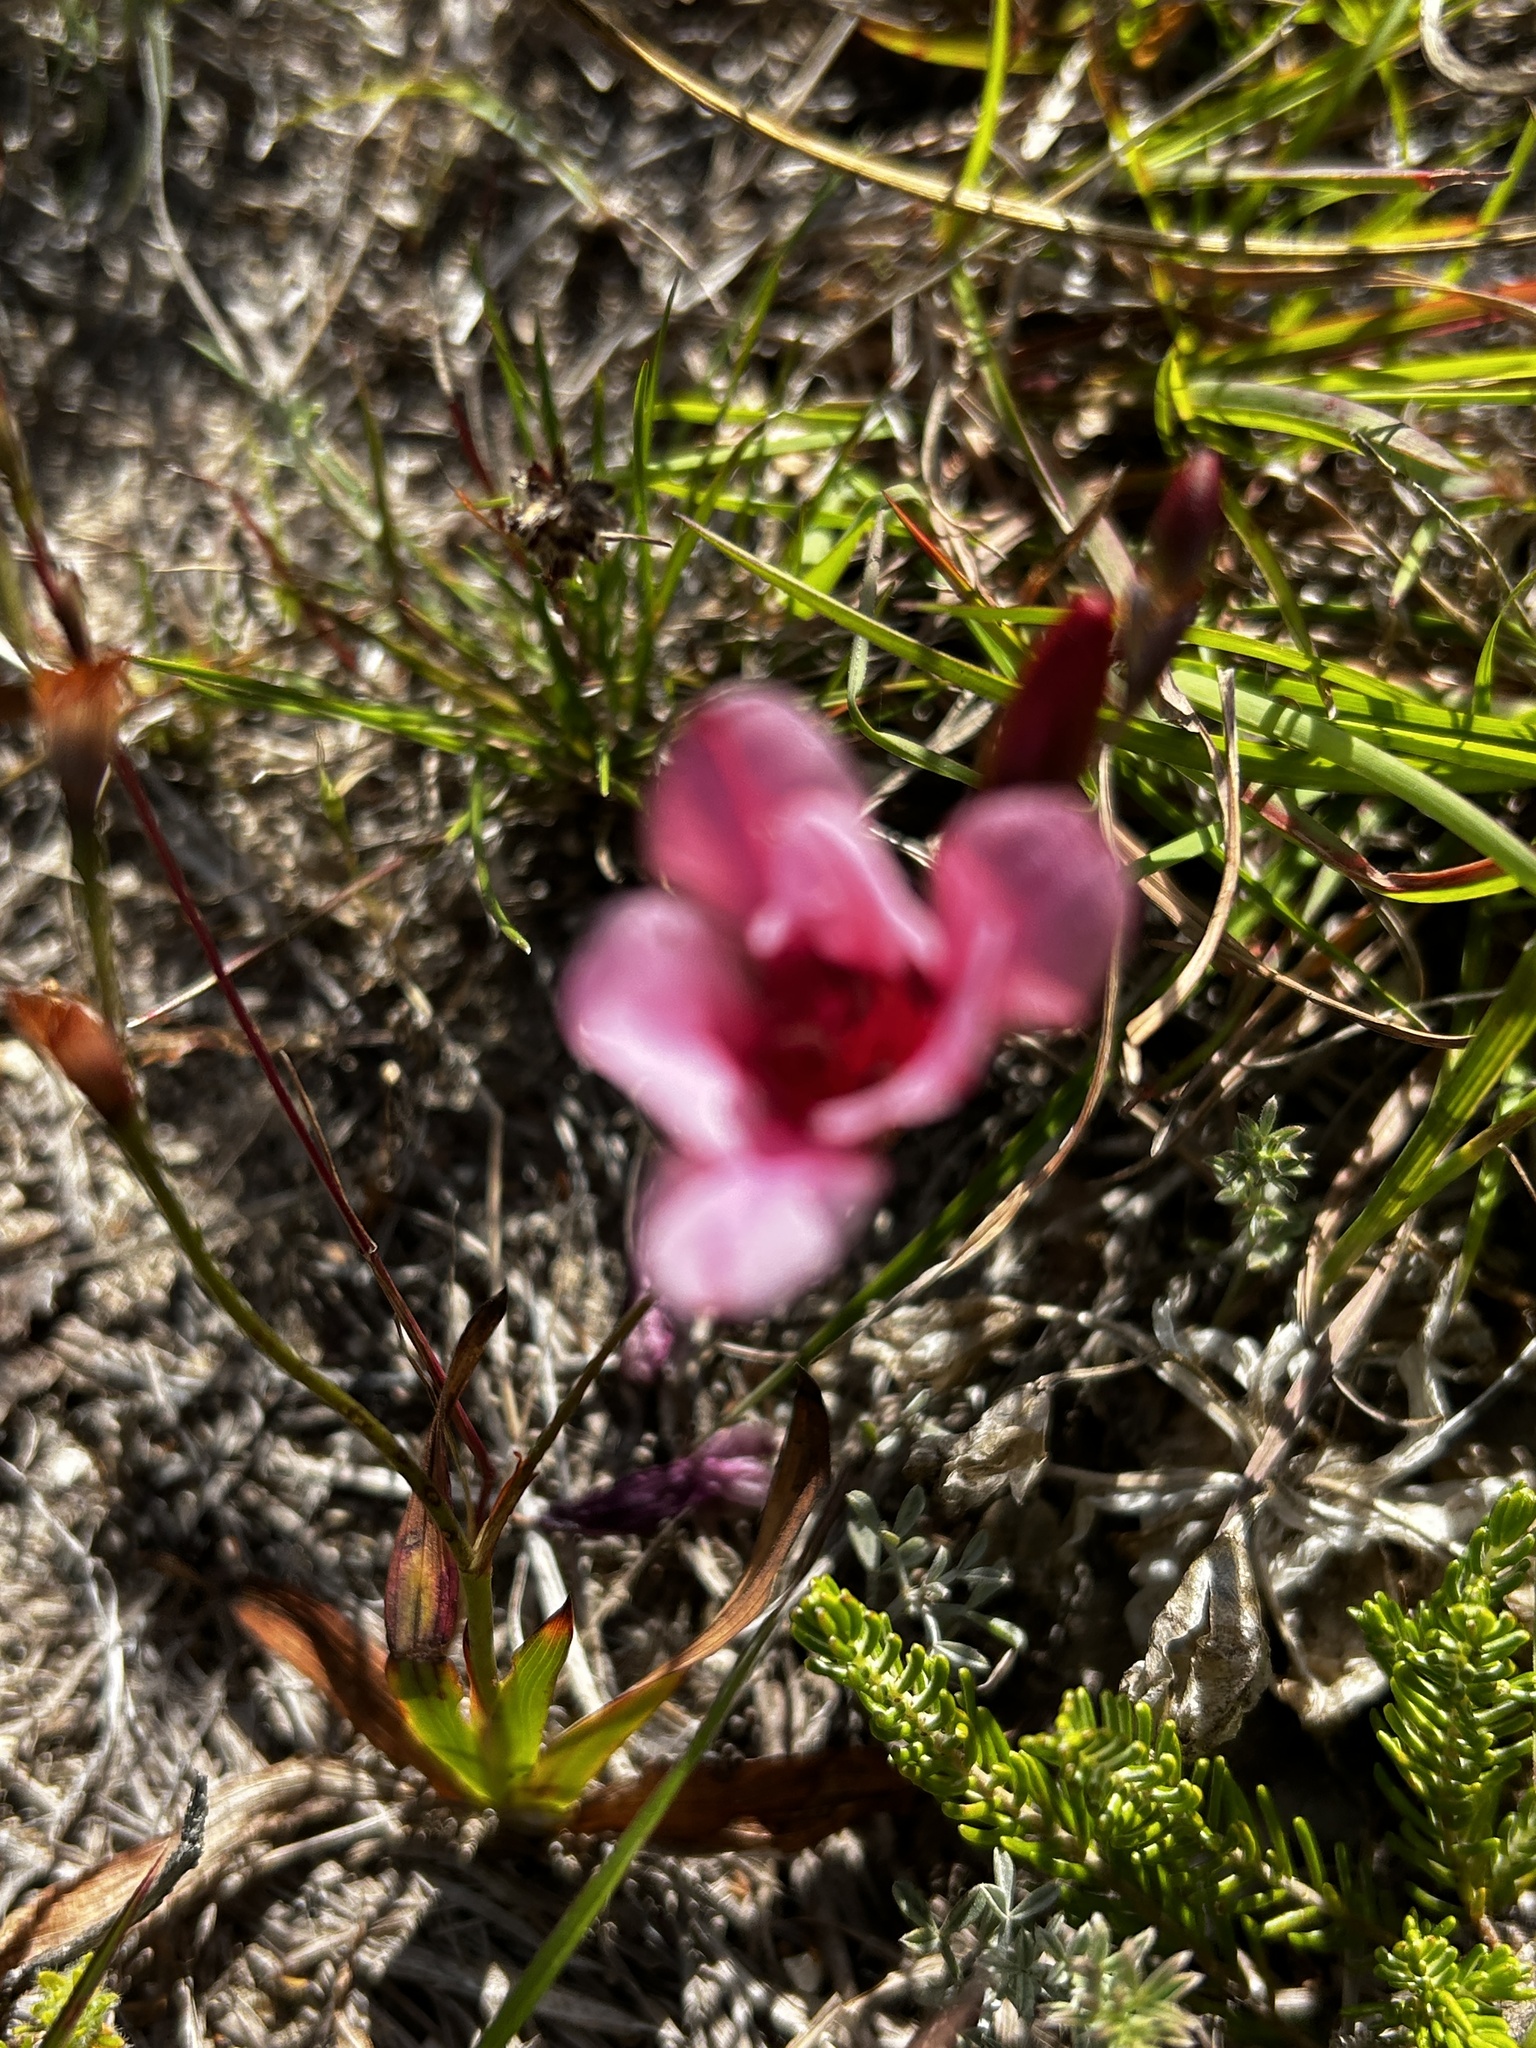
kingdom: Plantae
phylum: Tracheophyta
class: Liliopsida
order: Asparagales
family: Iridaceae
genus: Tritonia
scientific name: Tritonia squalida
